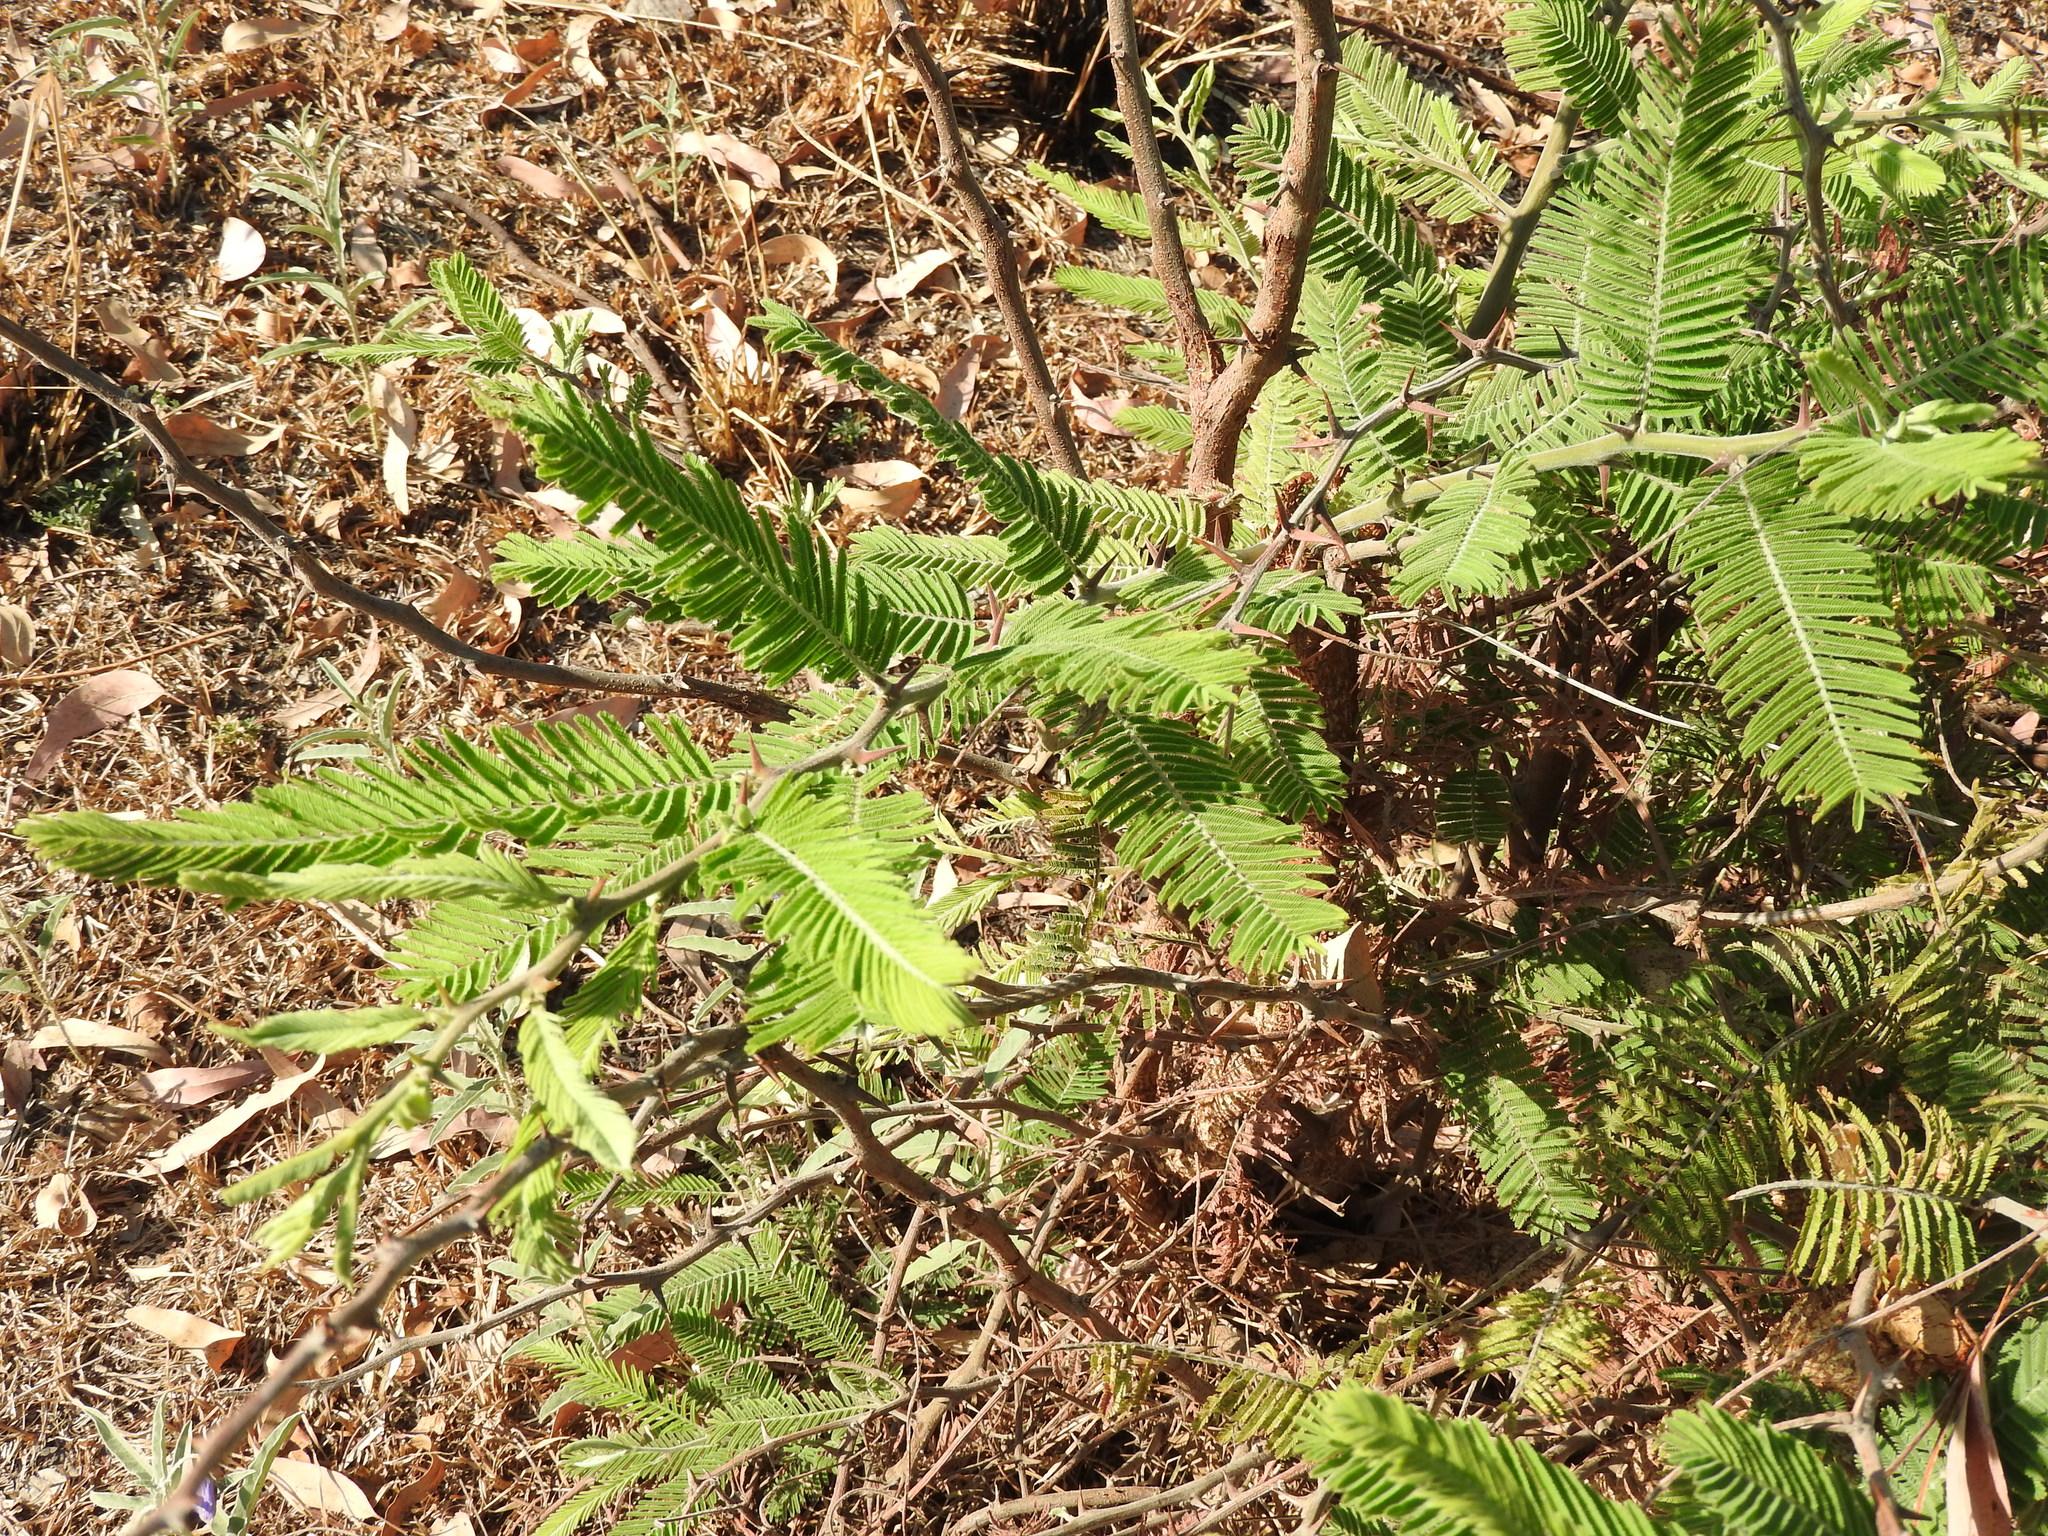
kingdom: Plantae
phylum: Tracheophyta
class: Magnoliopsida
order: Fabales
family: Fabaceae
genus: Vachellia
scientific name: Vachellia pennatula
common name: Fern-leaf acacia
